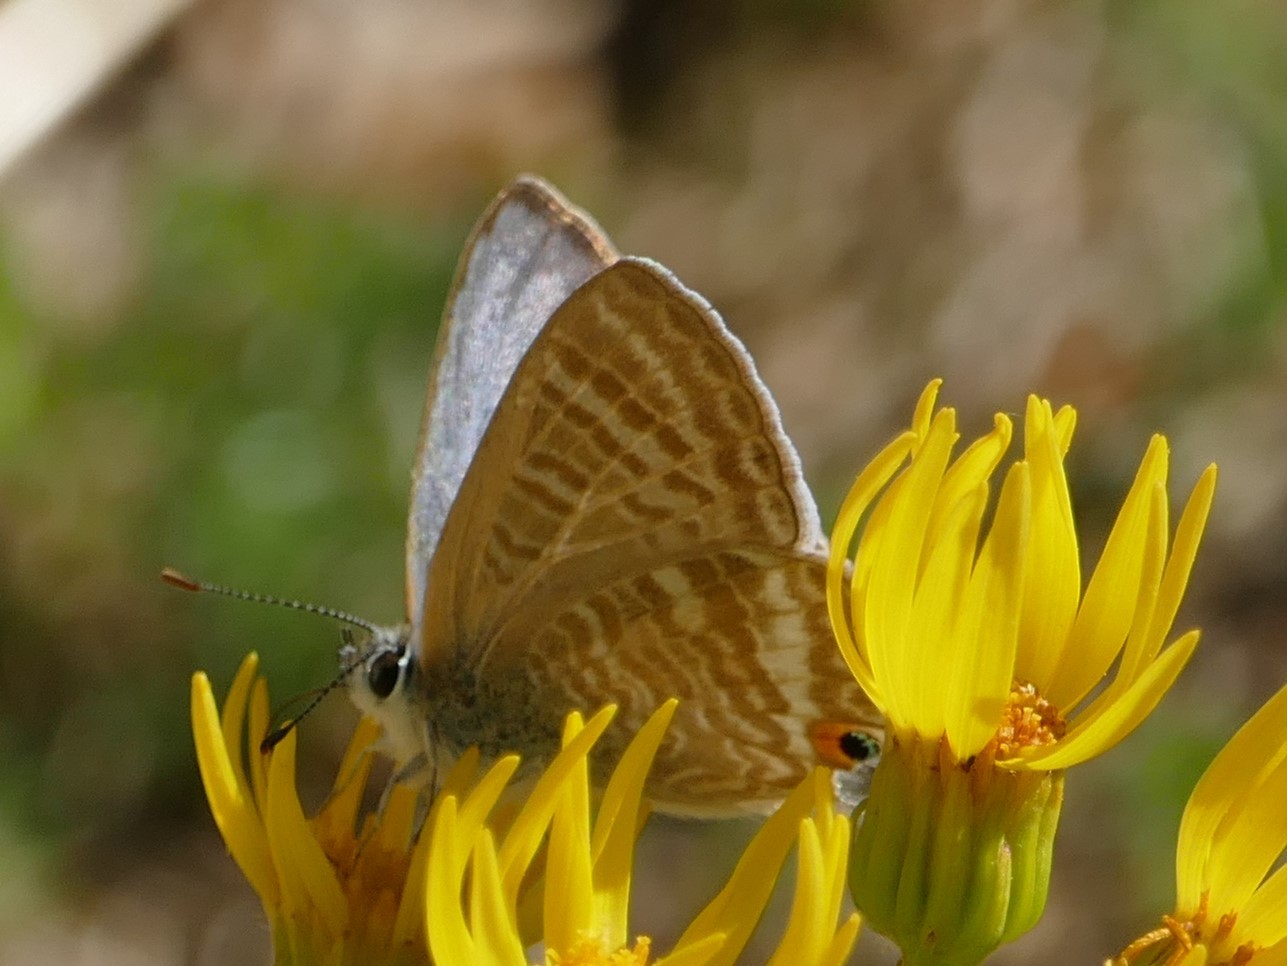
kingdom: Animalia
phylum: Arthropoda
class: Insecta
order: Lepidoptera
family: Lycaenidae
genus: Lampides
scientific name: Lampides boeticus
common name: Long-tailed blue
